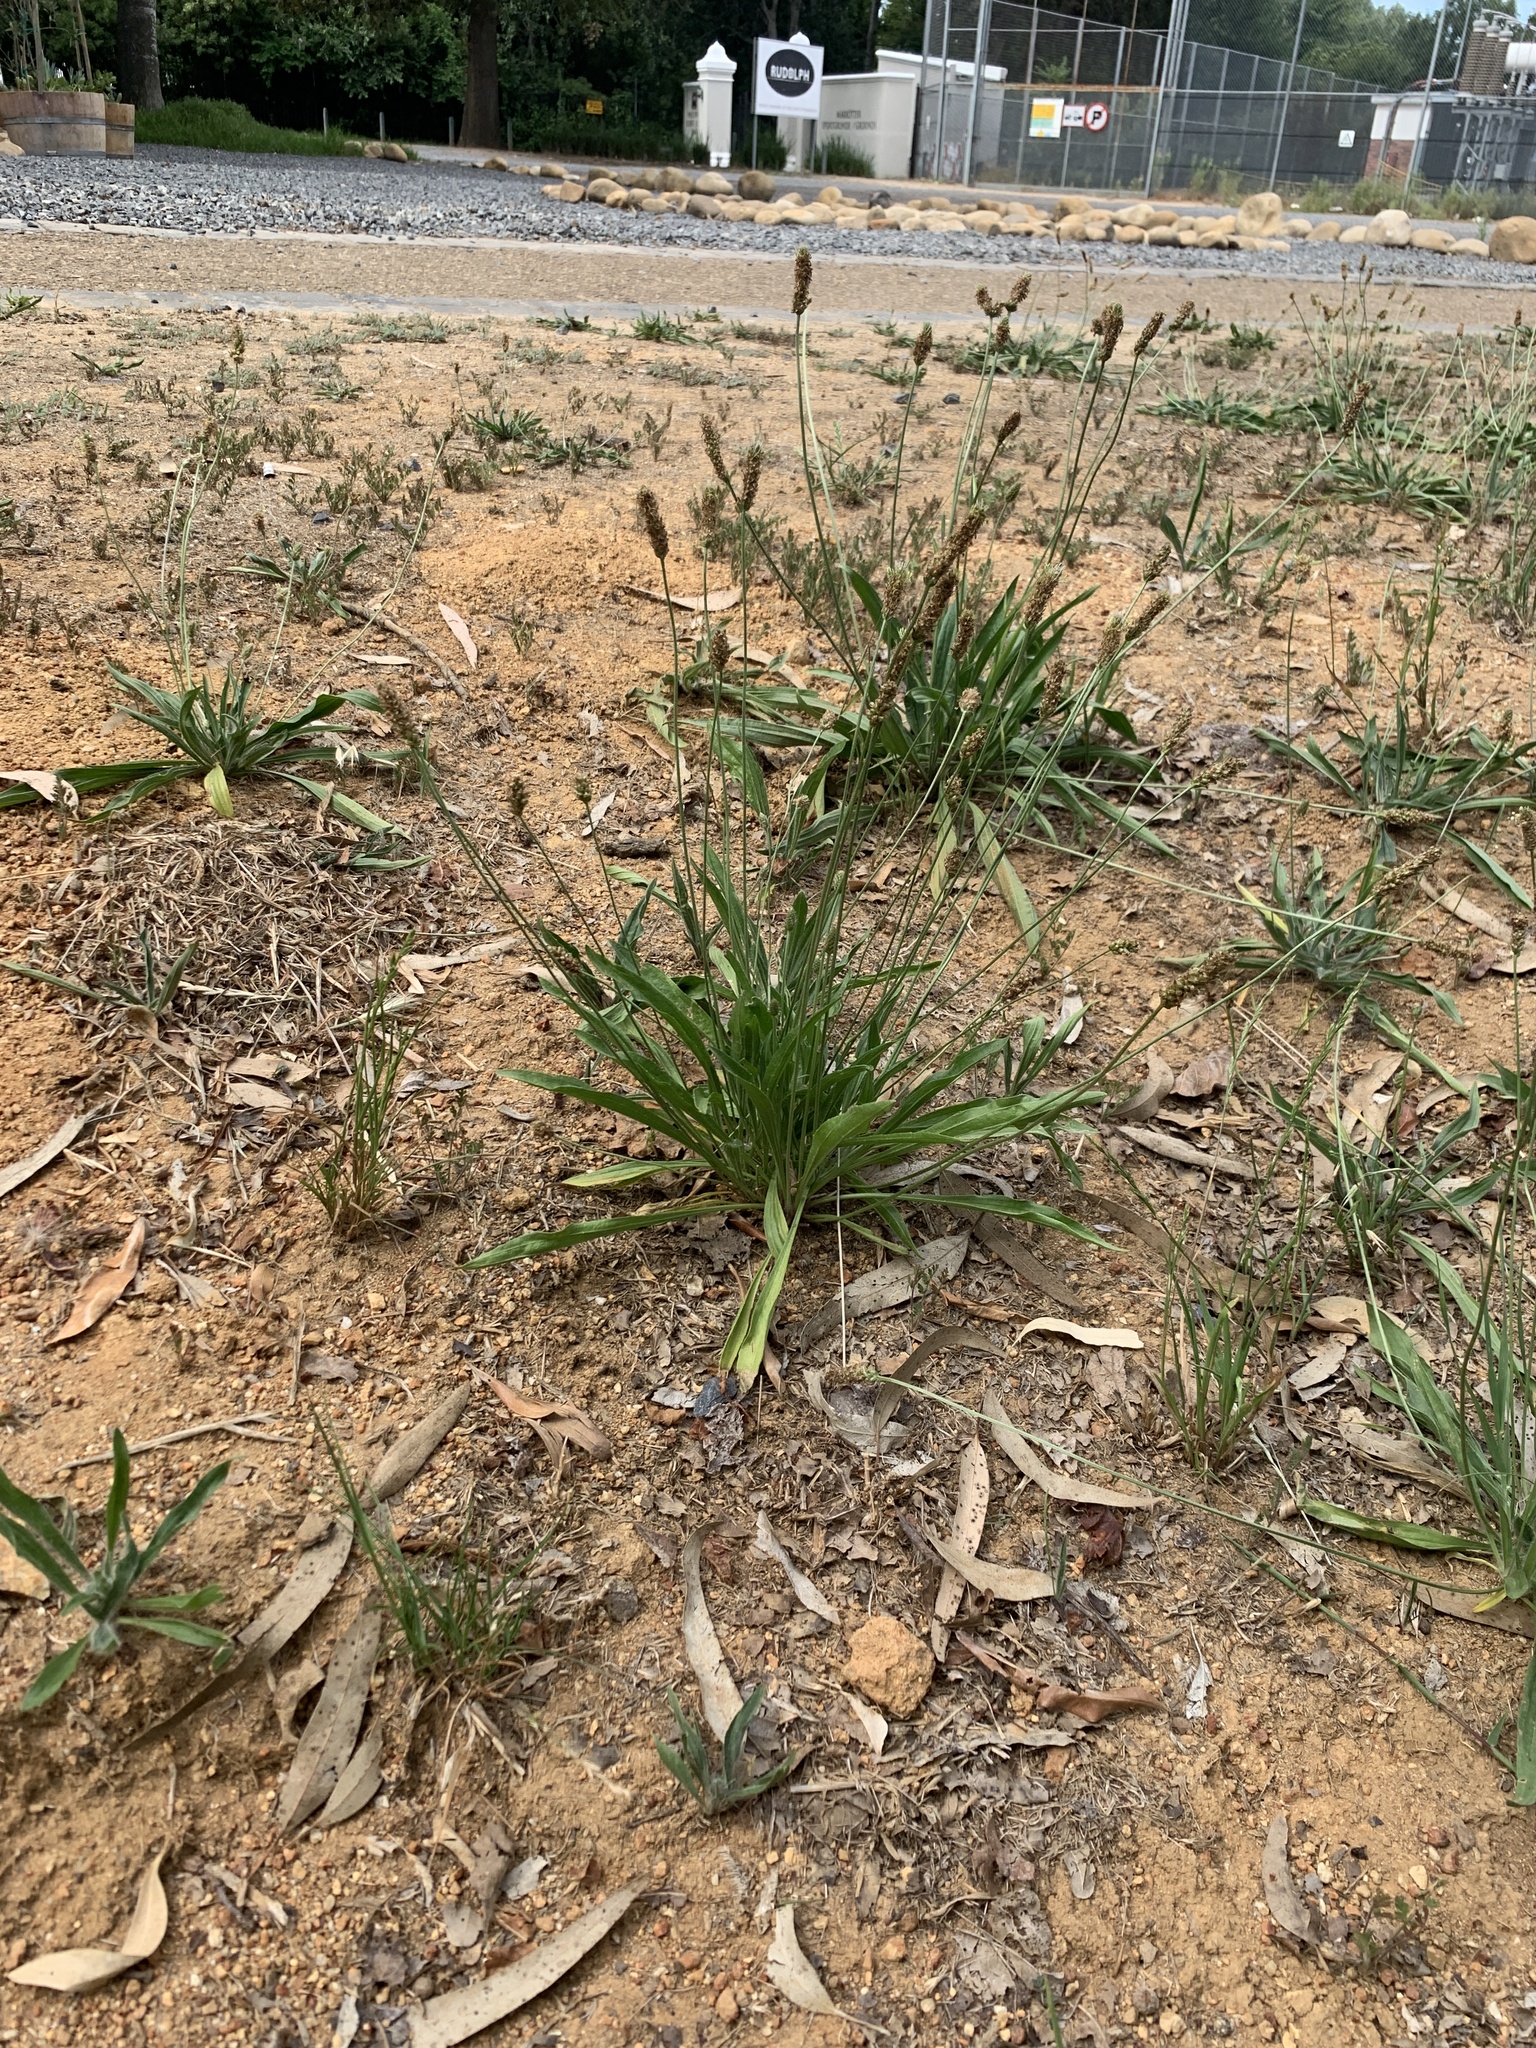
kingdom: Plantae
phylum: Tracheophyta
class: Magnoliopsida
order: Lamiales
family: Plantaginaceae
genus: Plantago
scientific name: Plantago lanceolata
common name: Ribwort plantain
